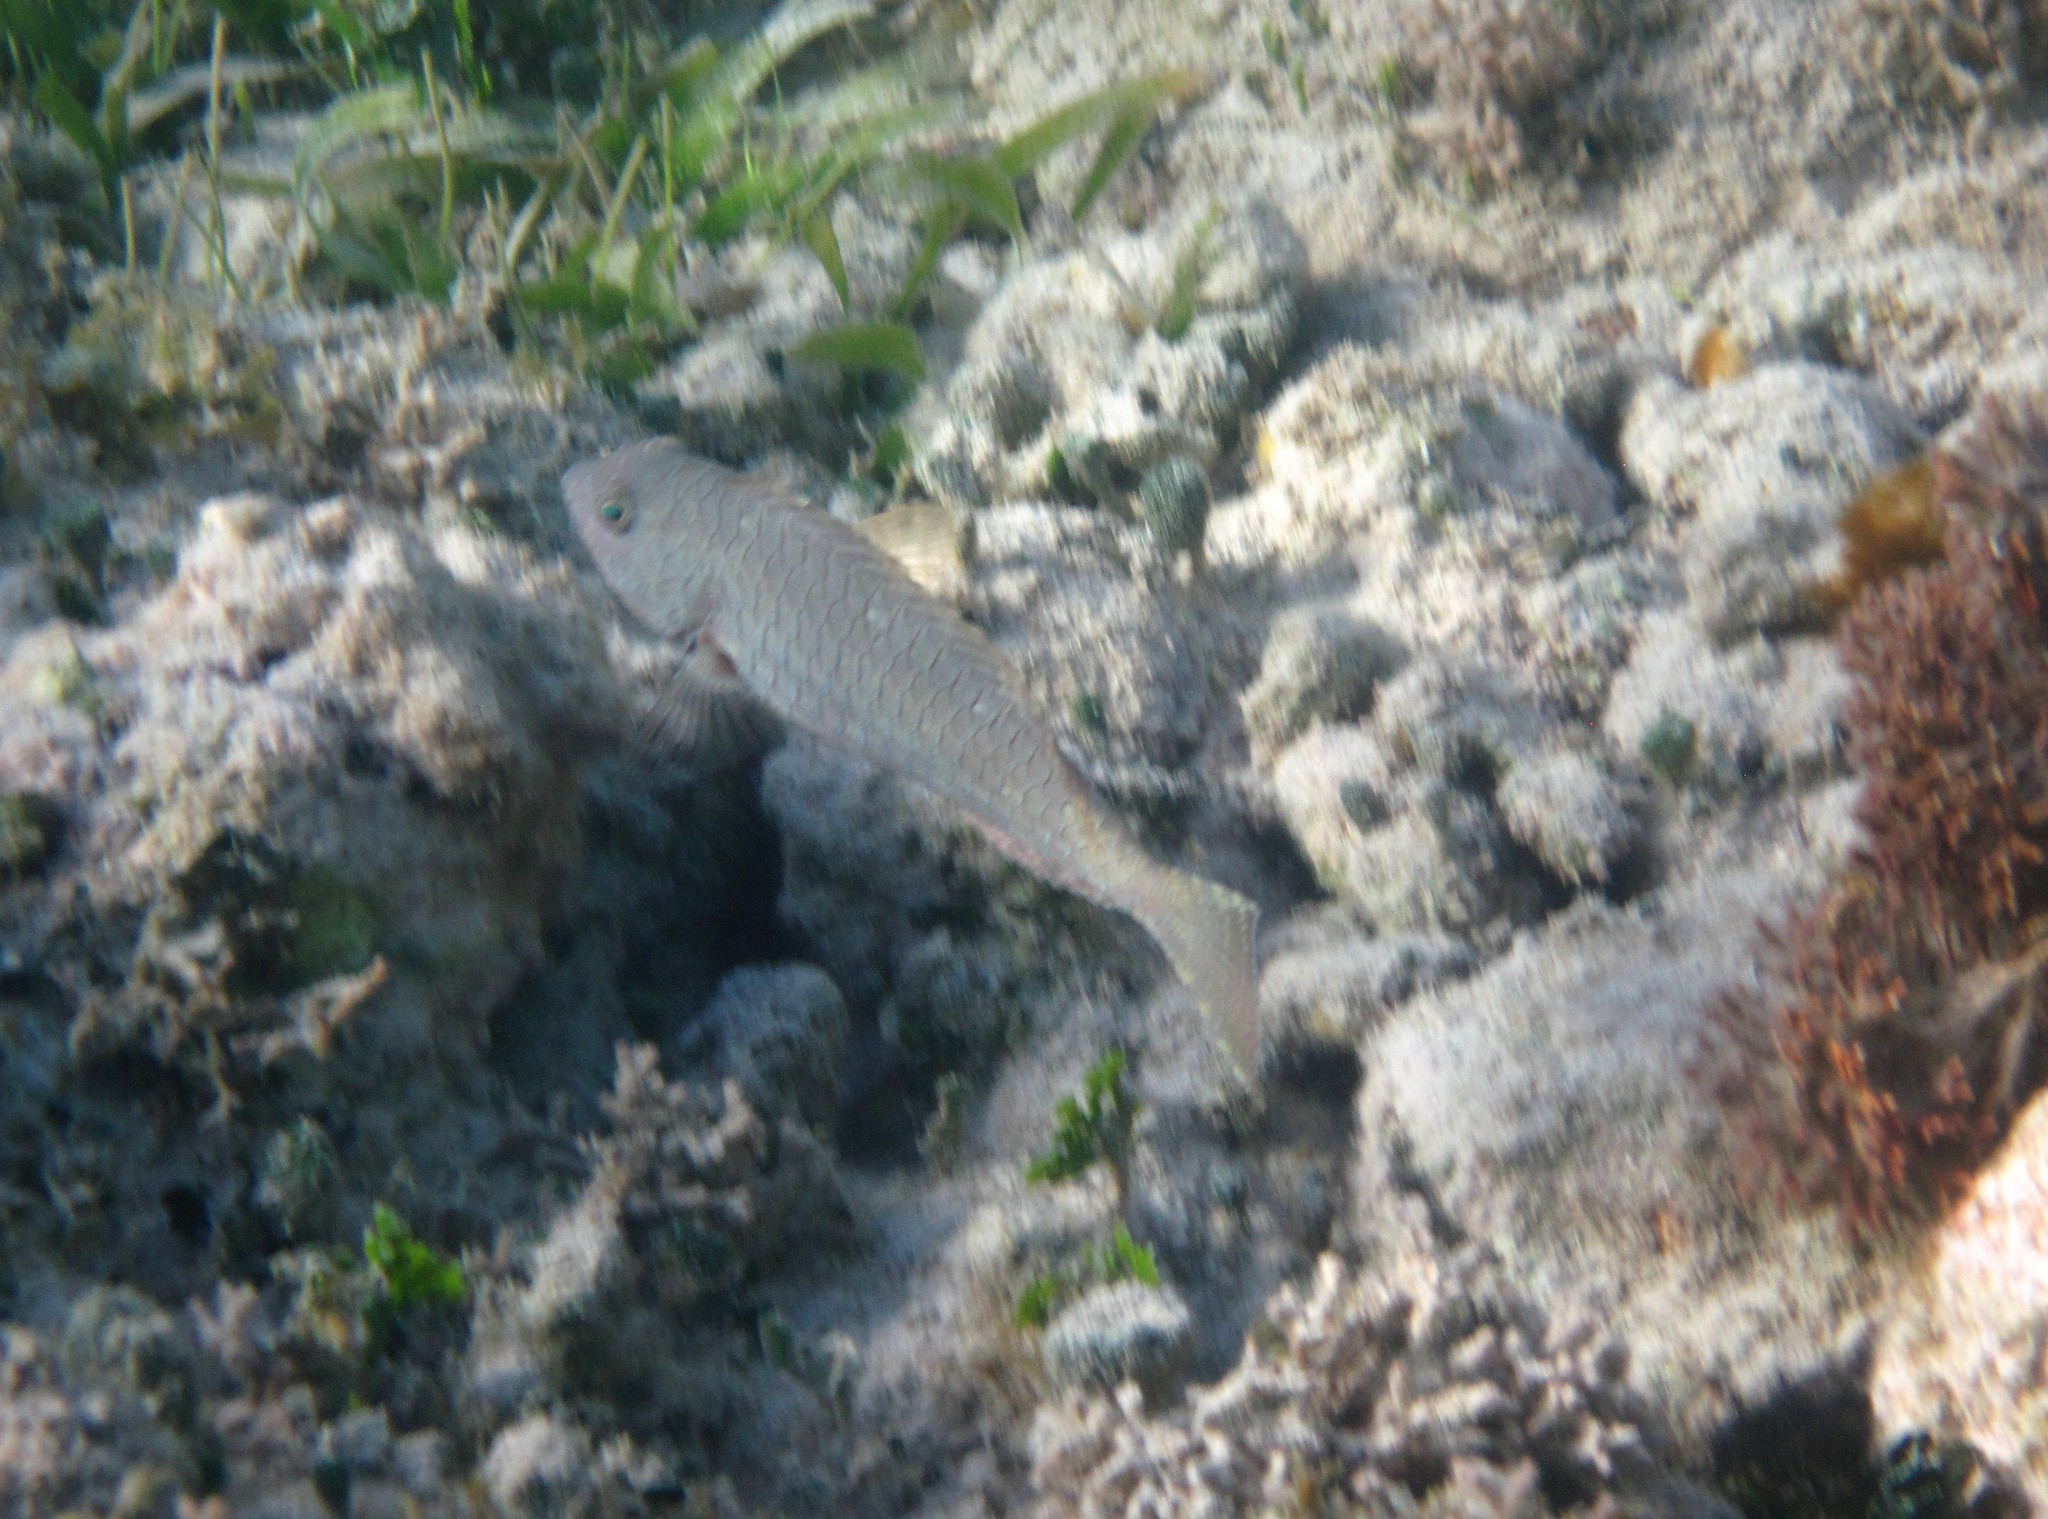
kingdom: Animalia
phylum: Chordata
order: Perciformes
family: Scaridae
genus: Sparisoma
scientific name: Sparisoma chrysopterum
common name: Redtail parrotfish
